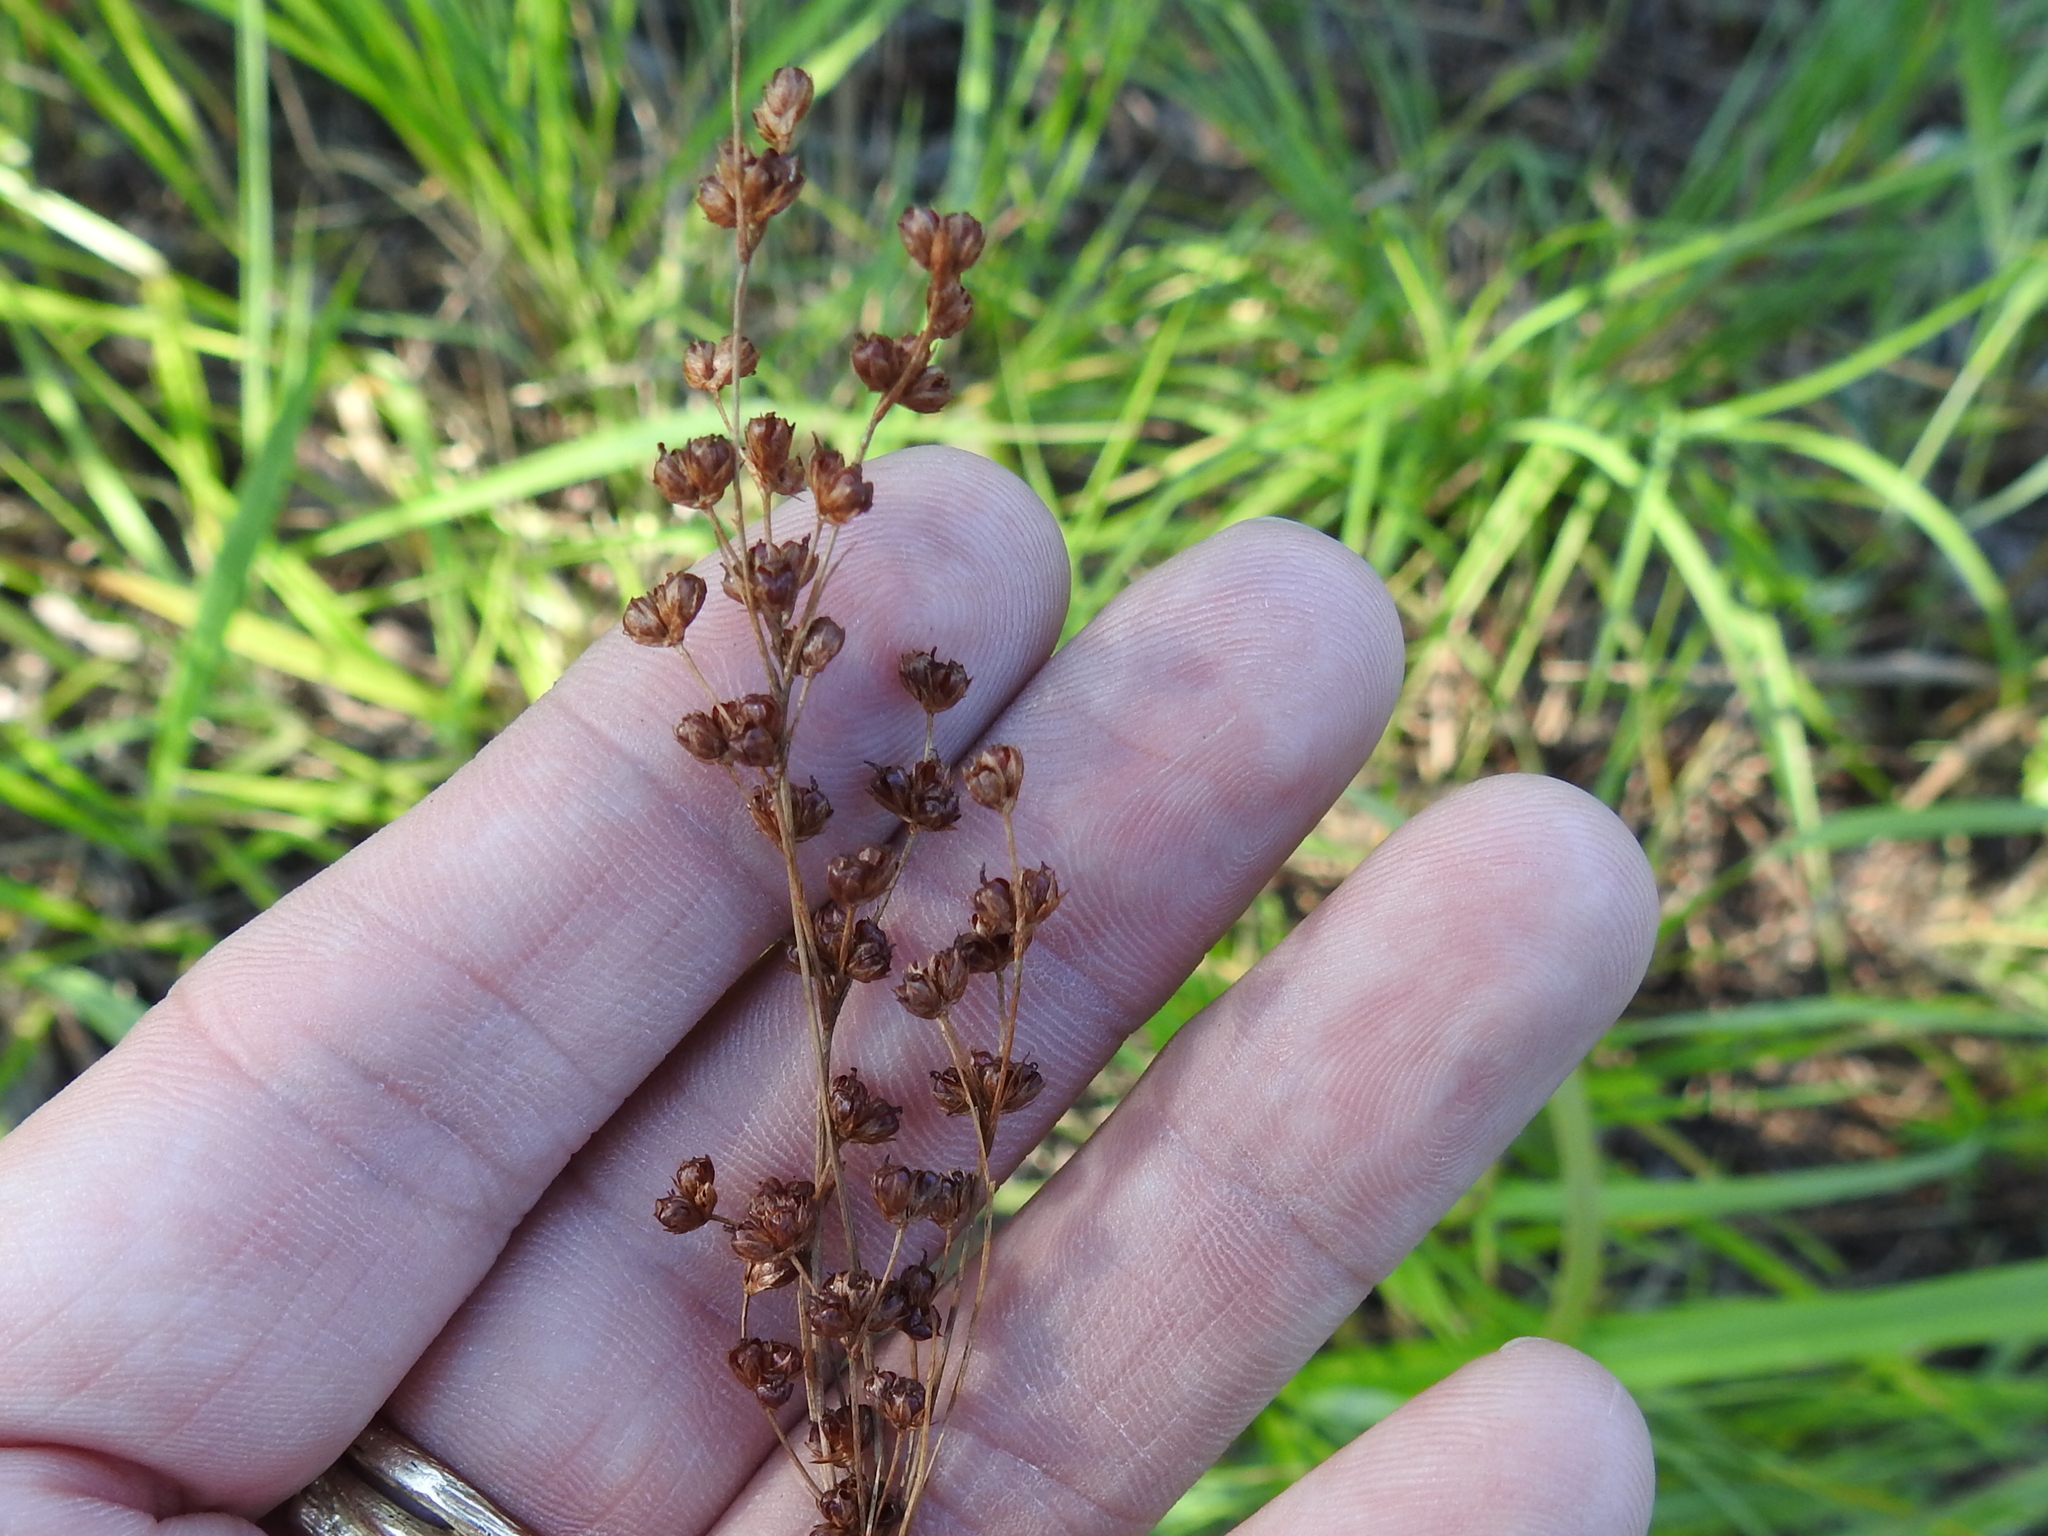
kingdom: Plantae
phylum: Tracheophyta
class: Liliopsida
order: Poales
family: Juncaceae
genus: Juncus
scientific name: Juncus marginatus
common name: Grass-leaf rush
